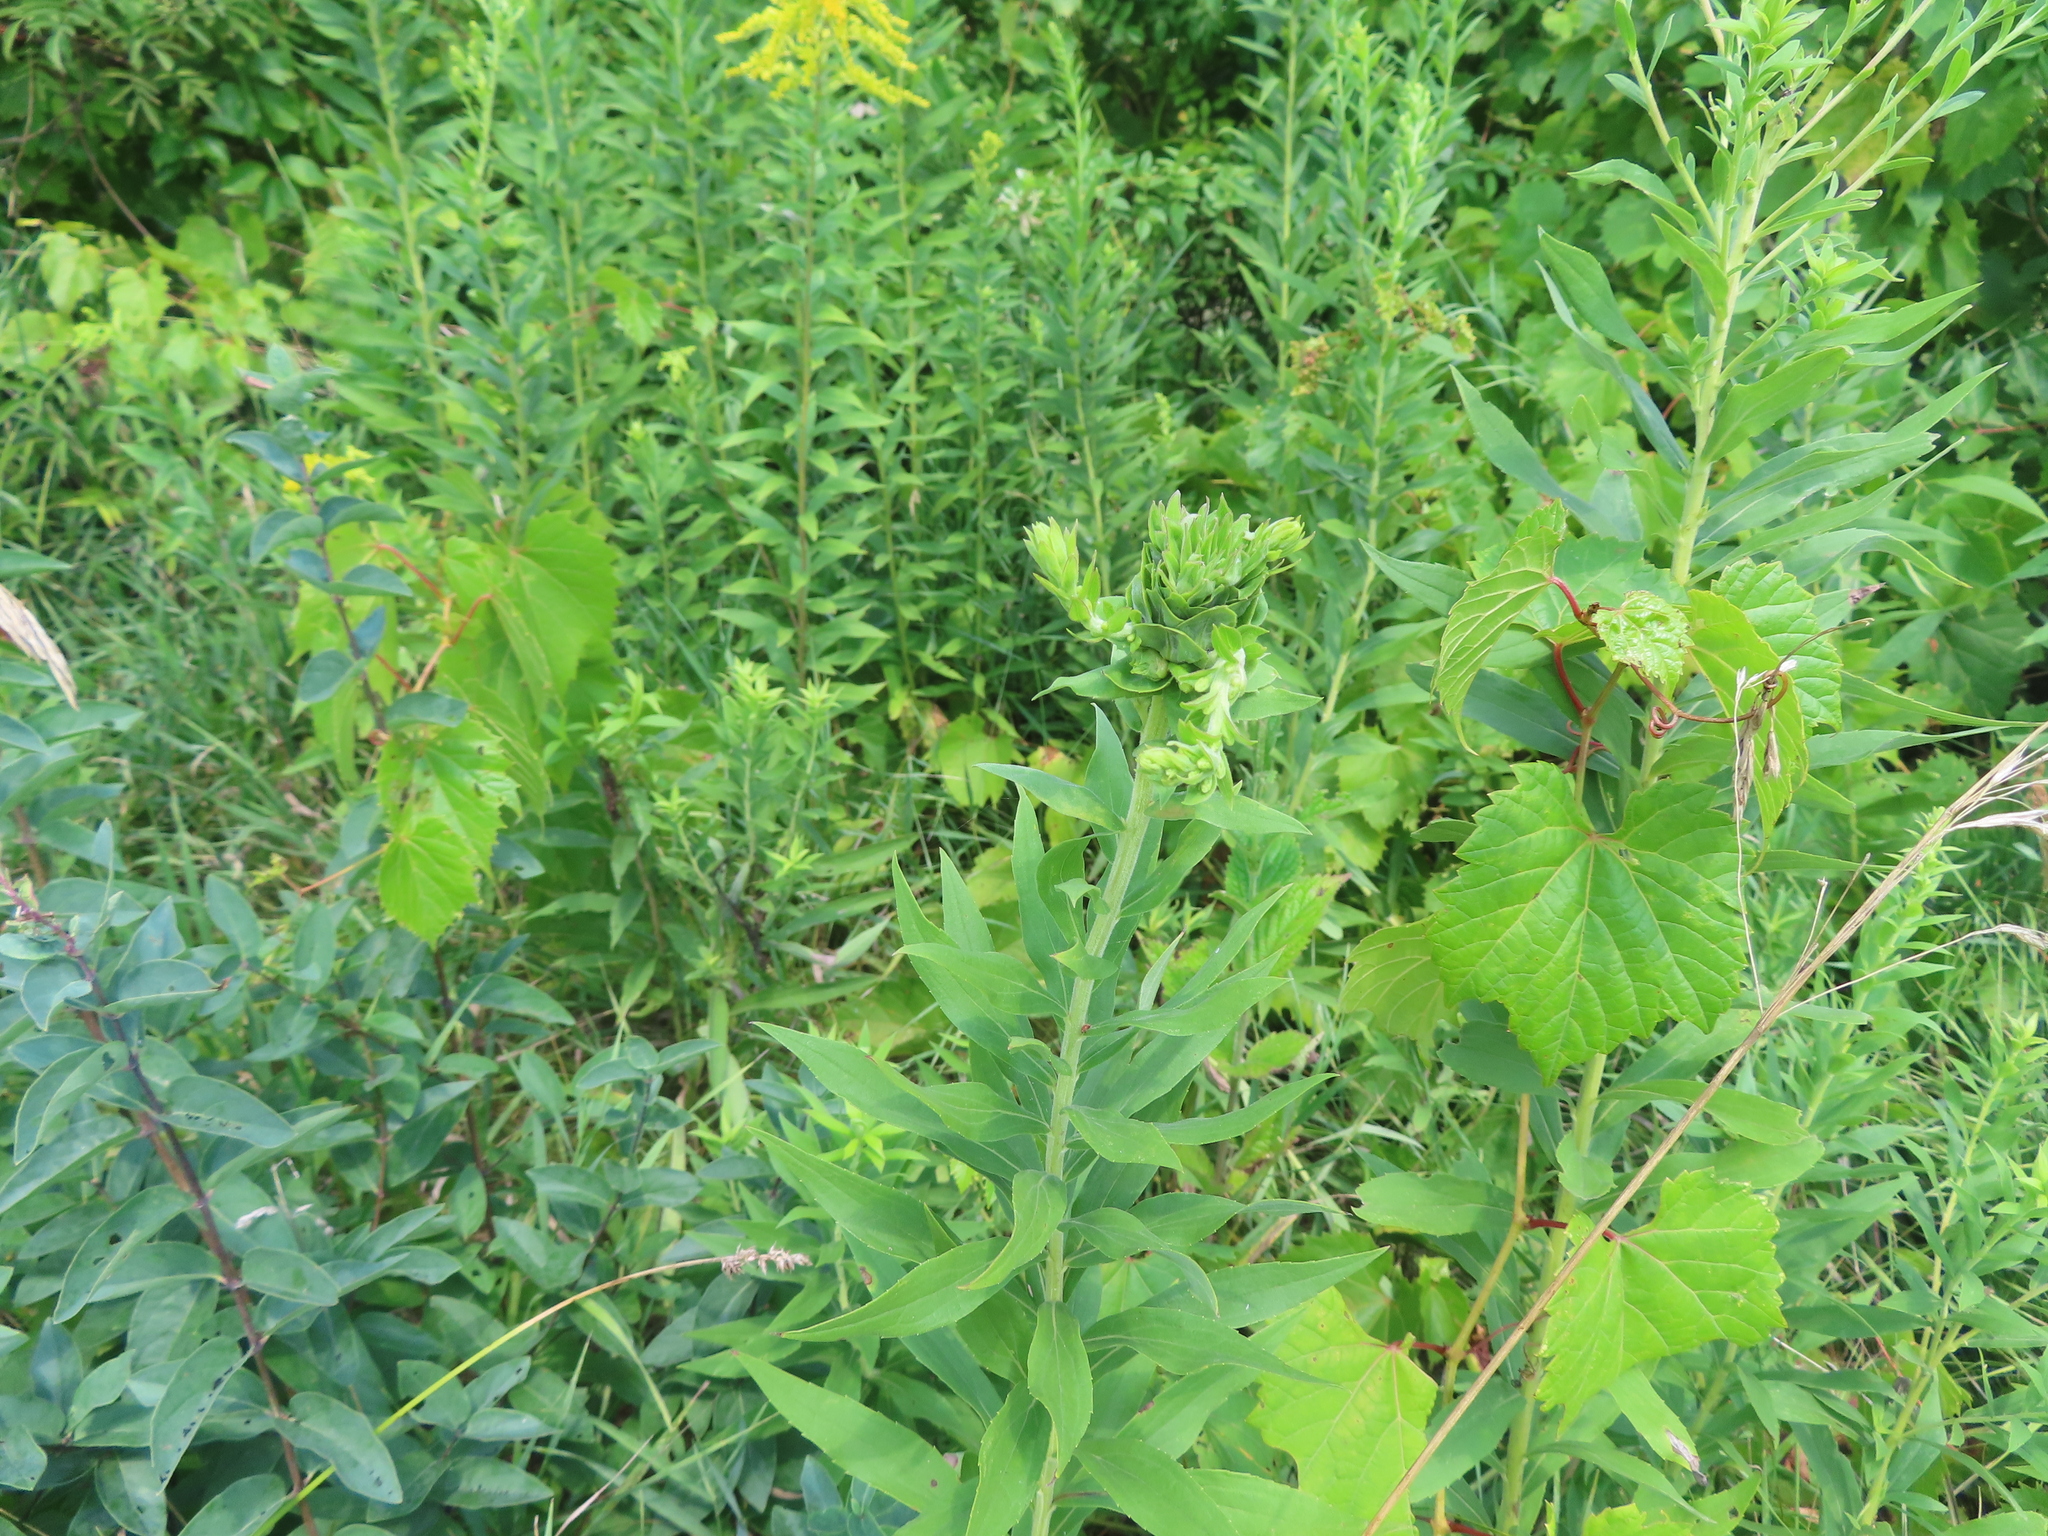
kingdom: Animalia
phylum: Arthropoda
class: Insecta
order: Diptera
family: Cecidomyiidae
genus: Rhopalomyia
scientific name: Rhopalomyia solidaginis
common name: Goldenrod bunch gall midge
